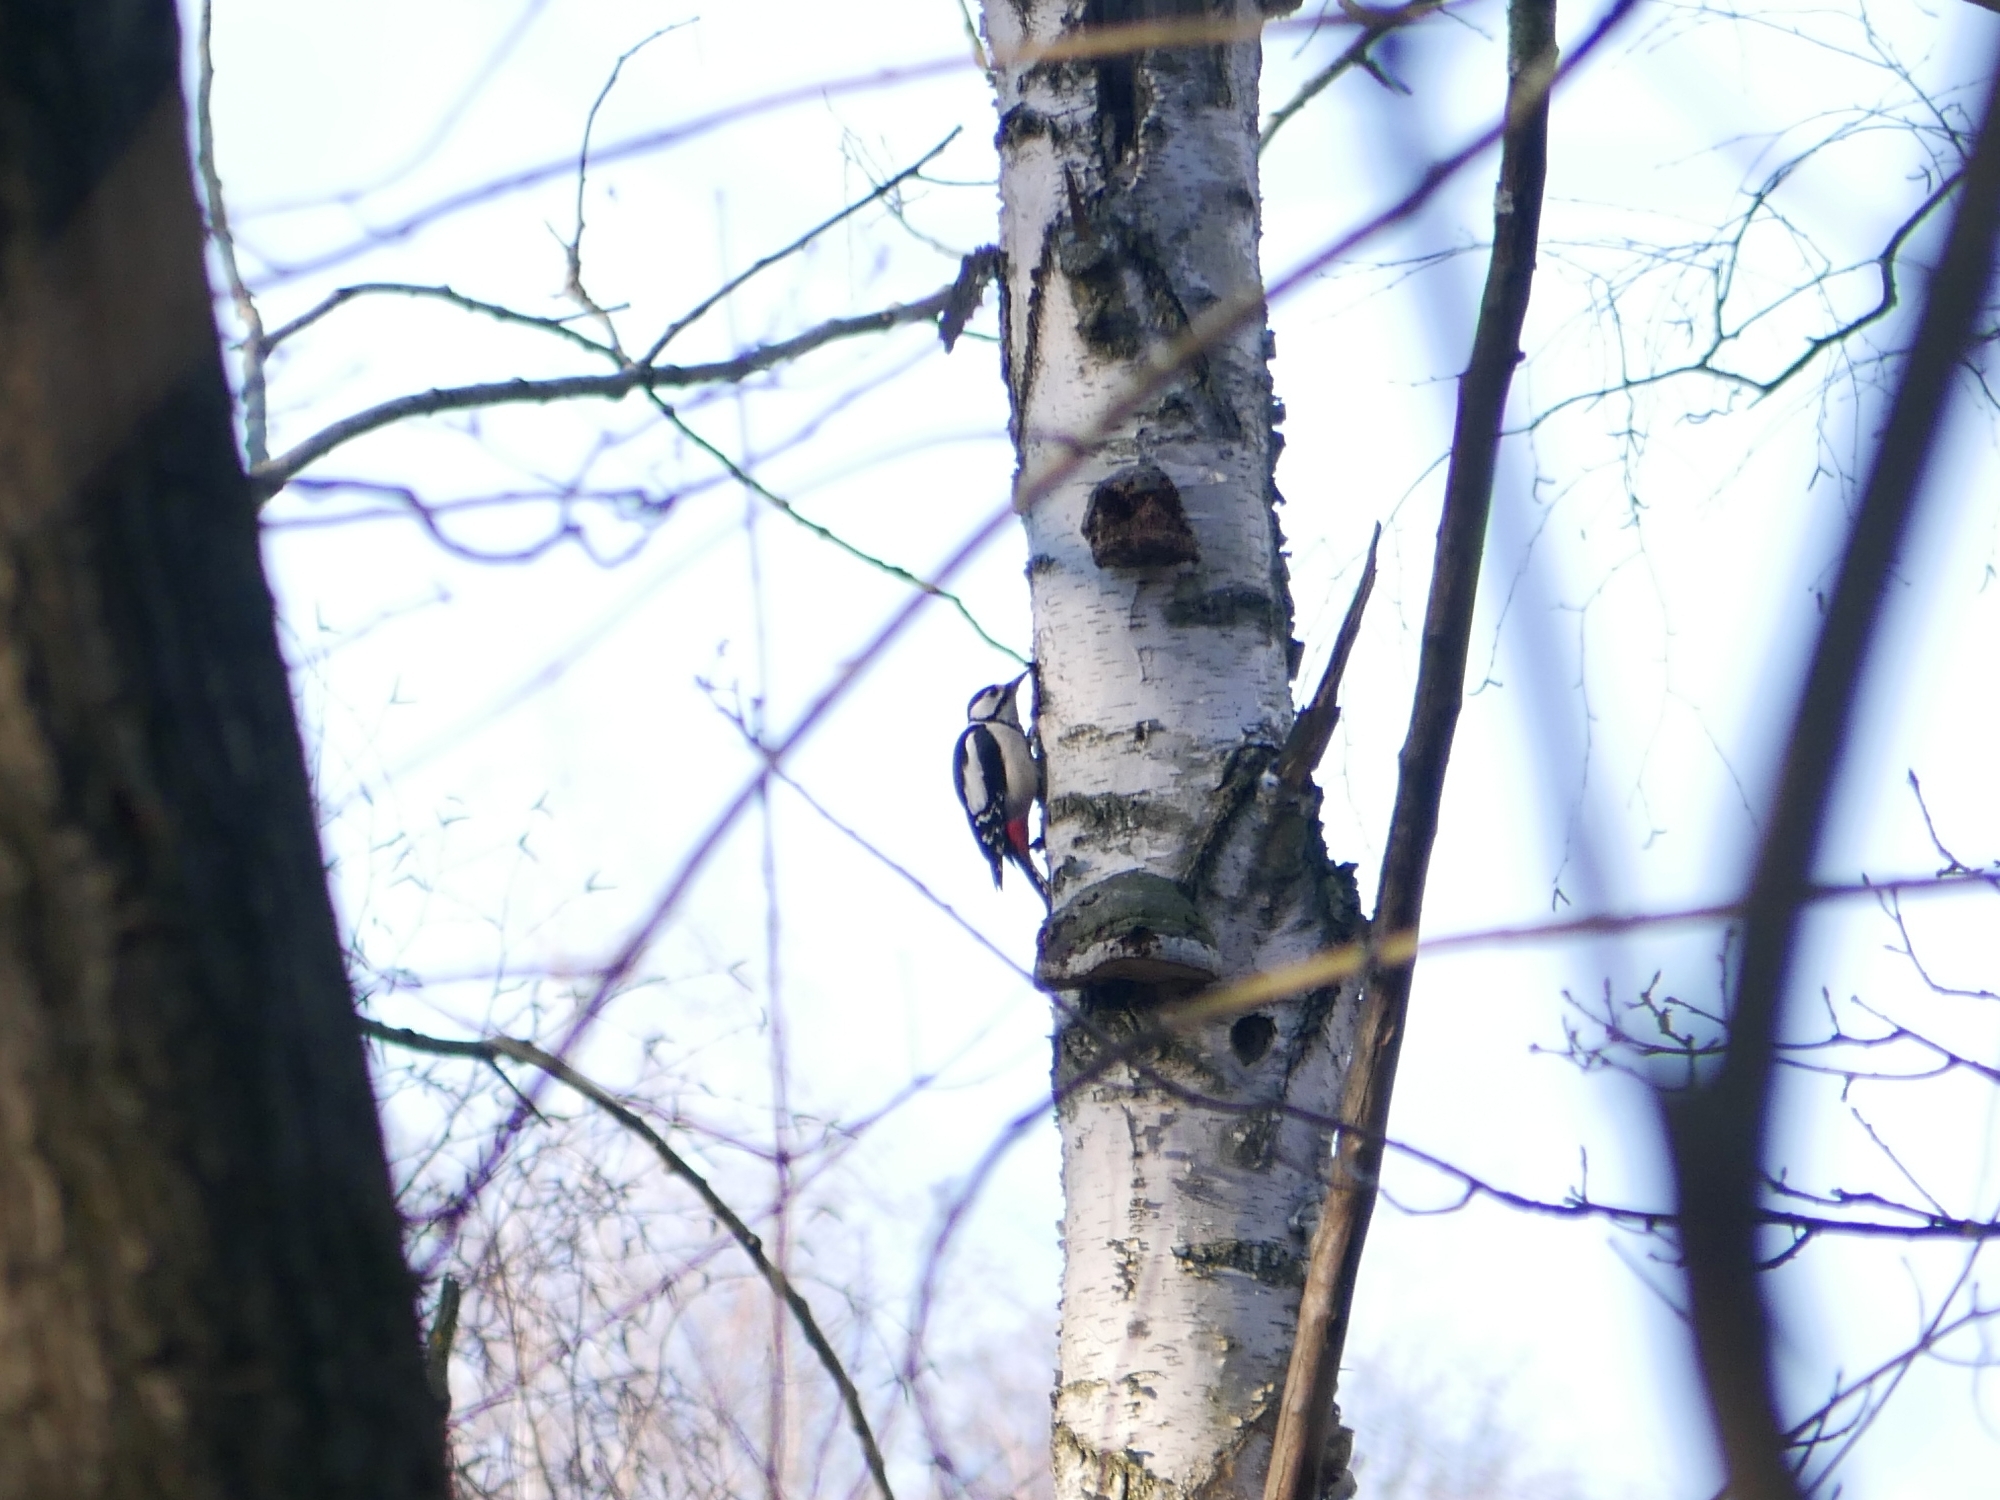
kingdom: Animalia
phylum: Chordata
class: Aves
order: Piciformes
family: Picidae
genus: Dendrocopos
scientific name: Dendrocopos major
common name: Great spotted woodpecker
